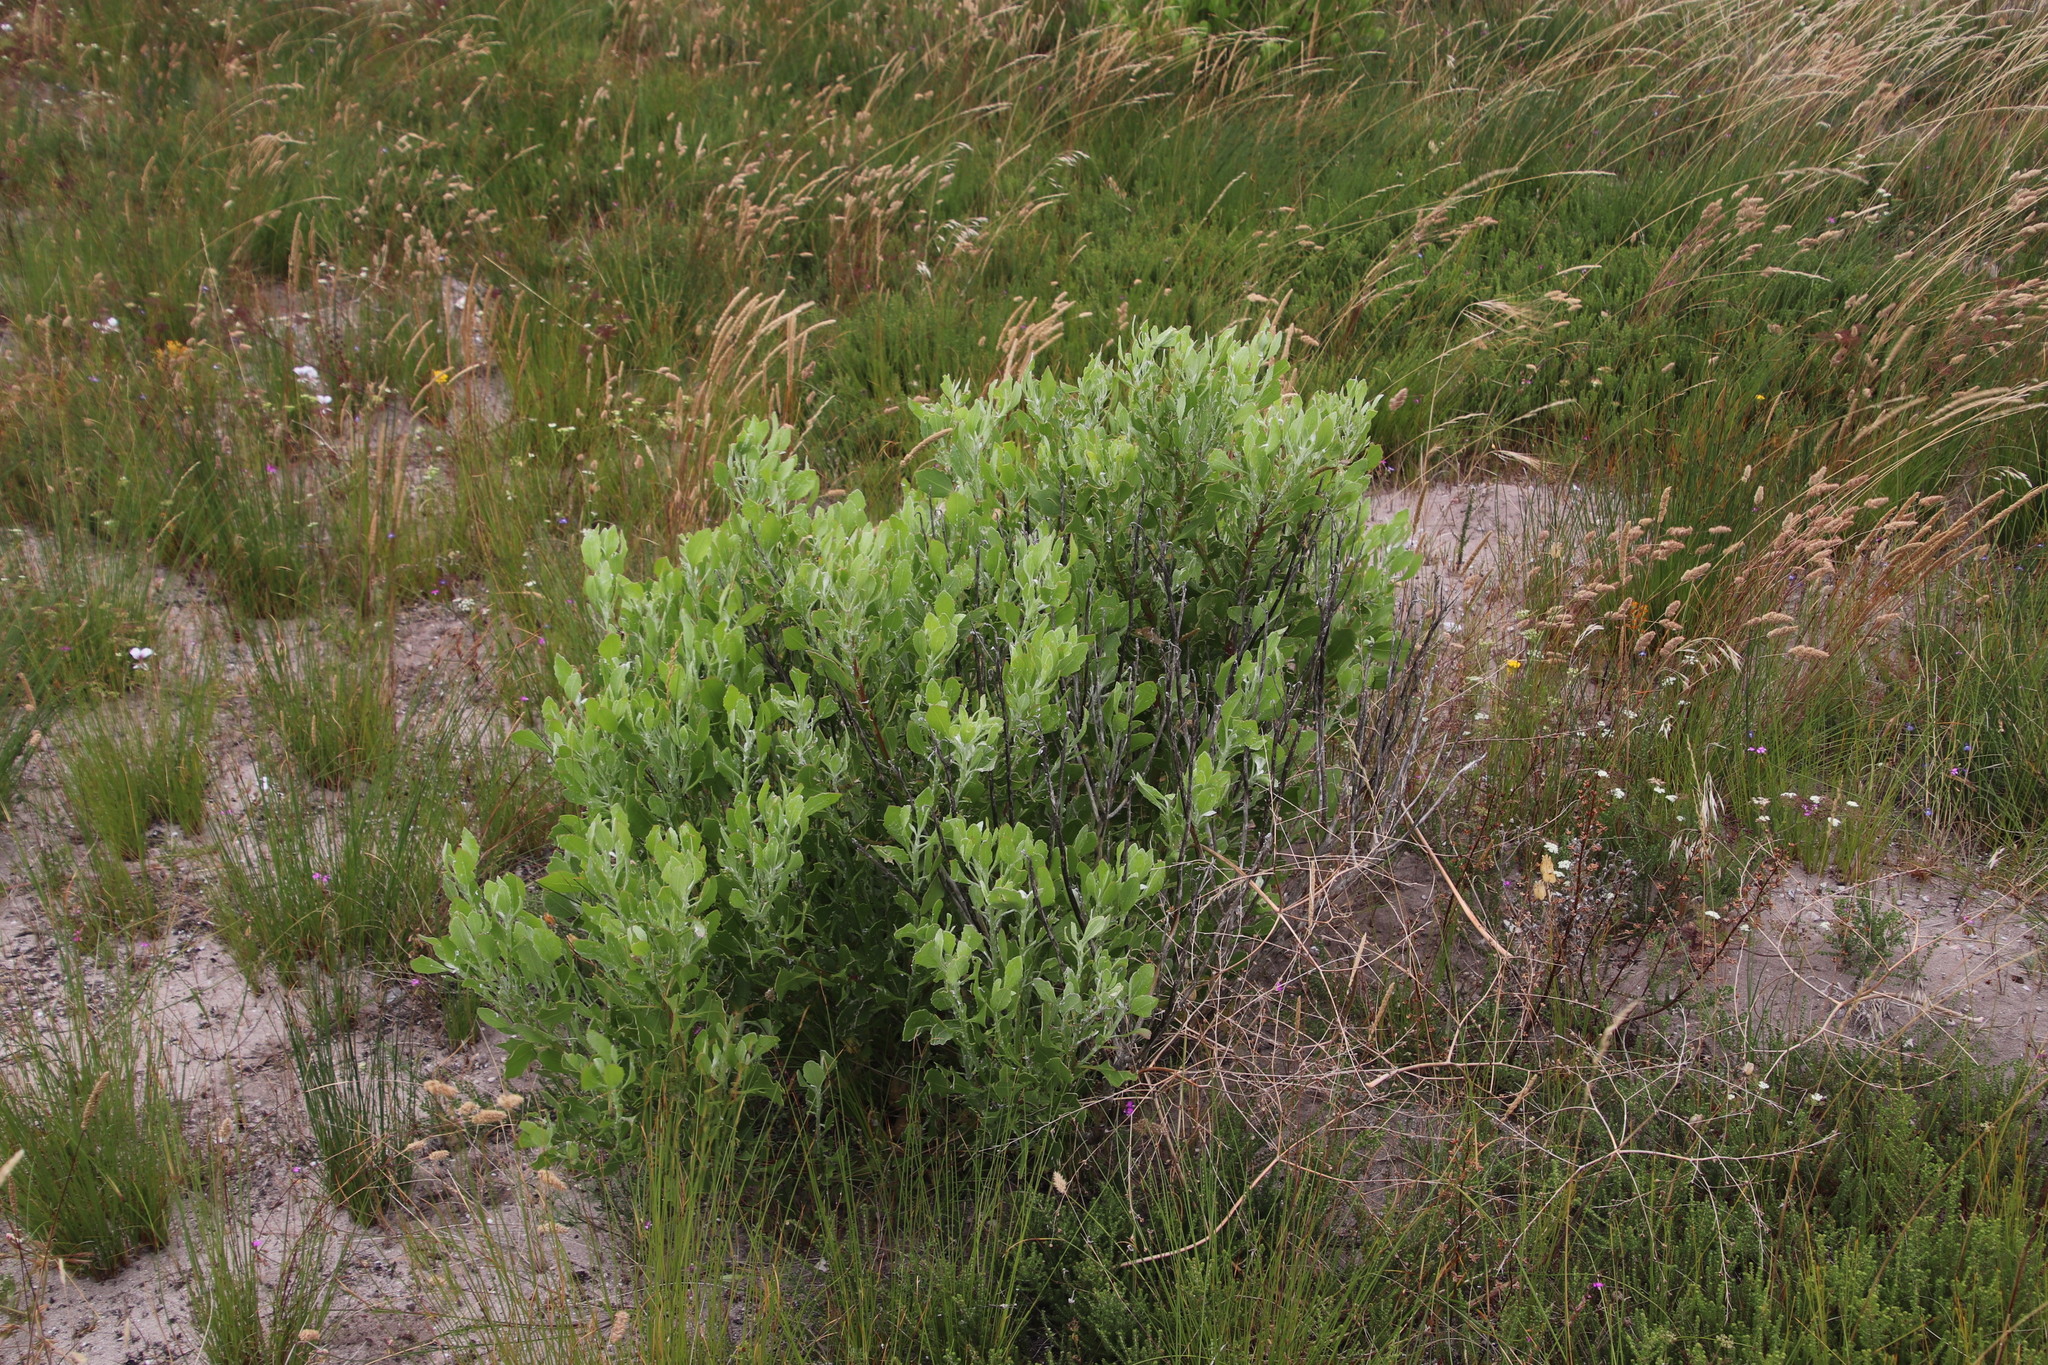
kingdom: Plantae
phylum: Tracheophyta
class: Magnoliopsida
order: Asterales
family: Asteraceae
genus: Osteospermum
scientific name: Osteospermum moniliferum
